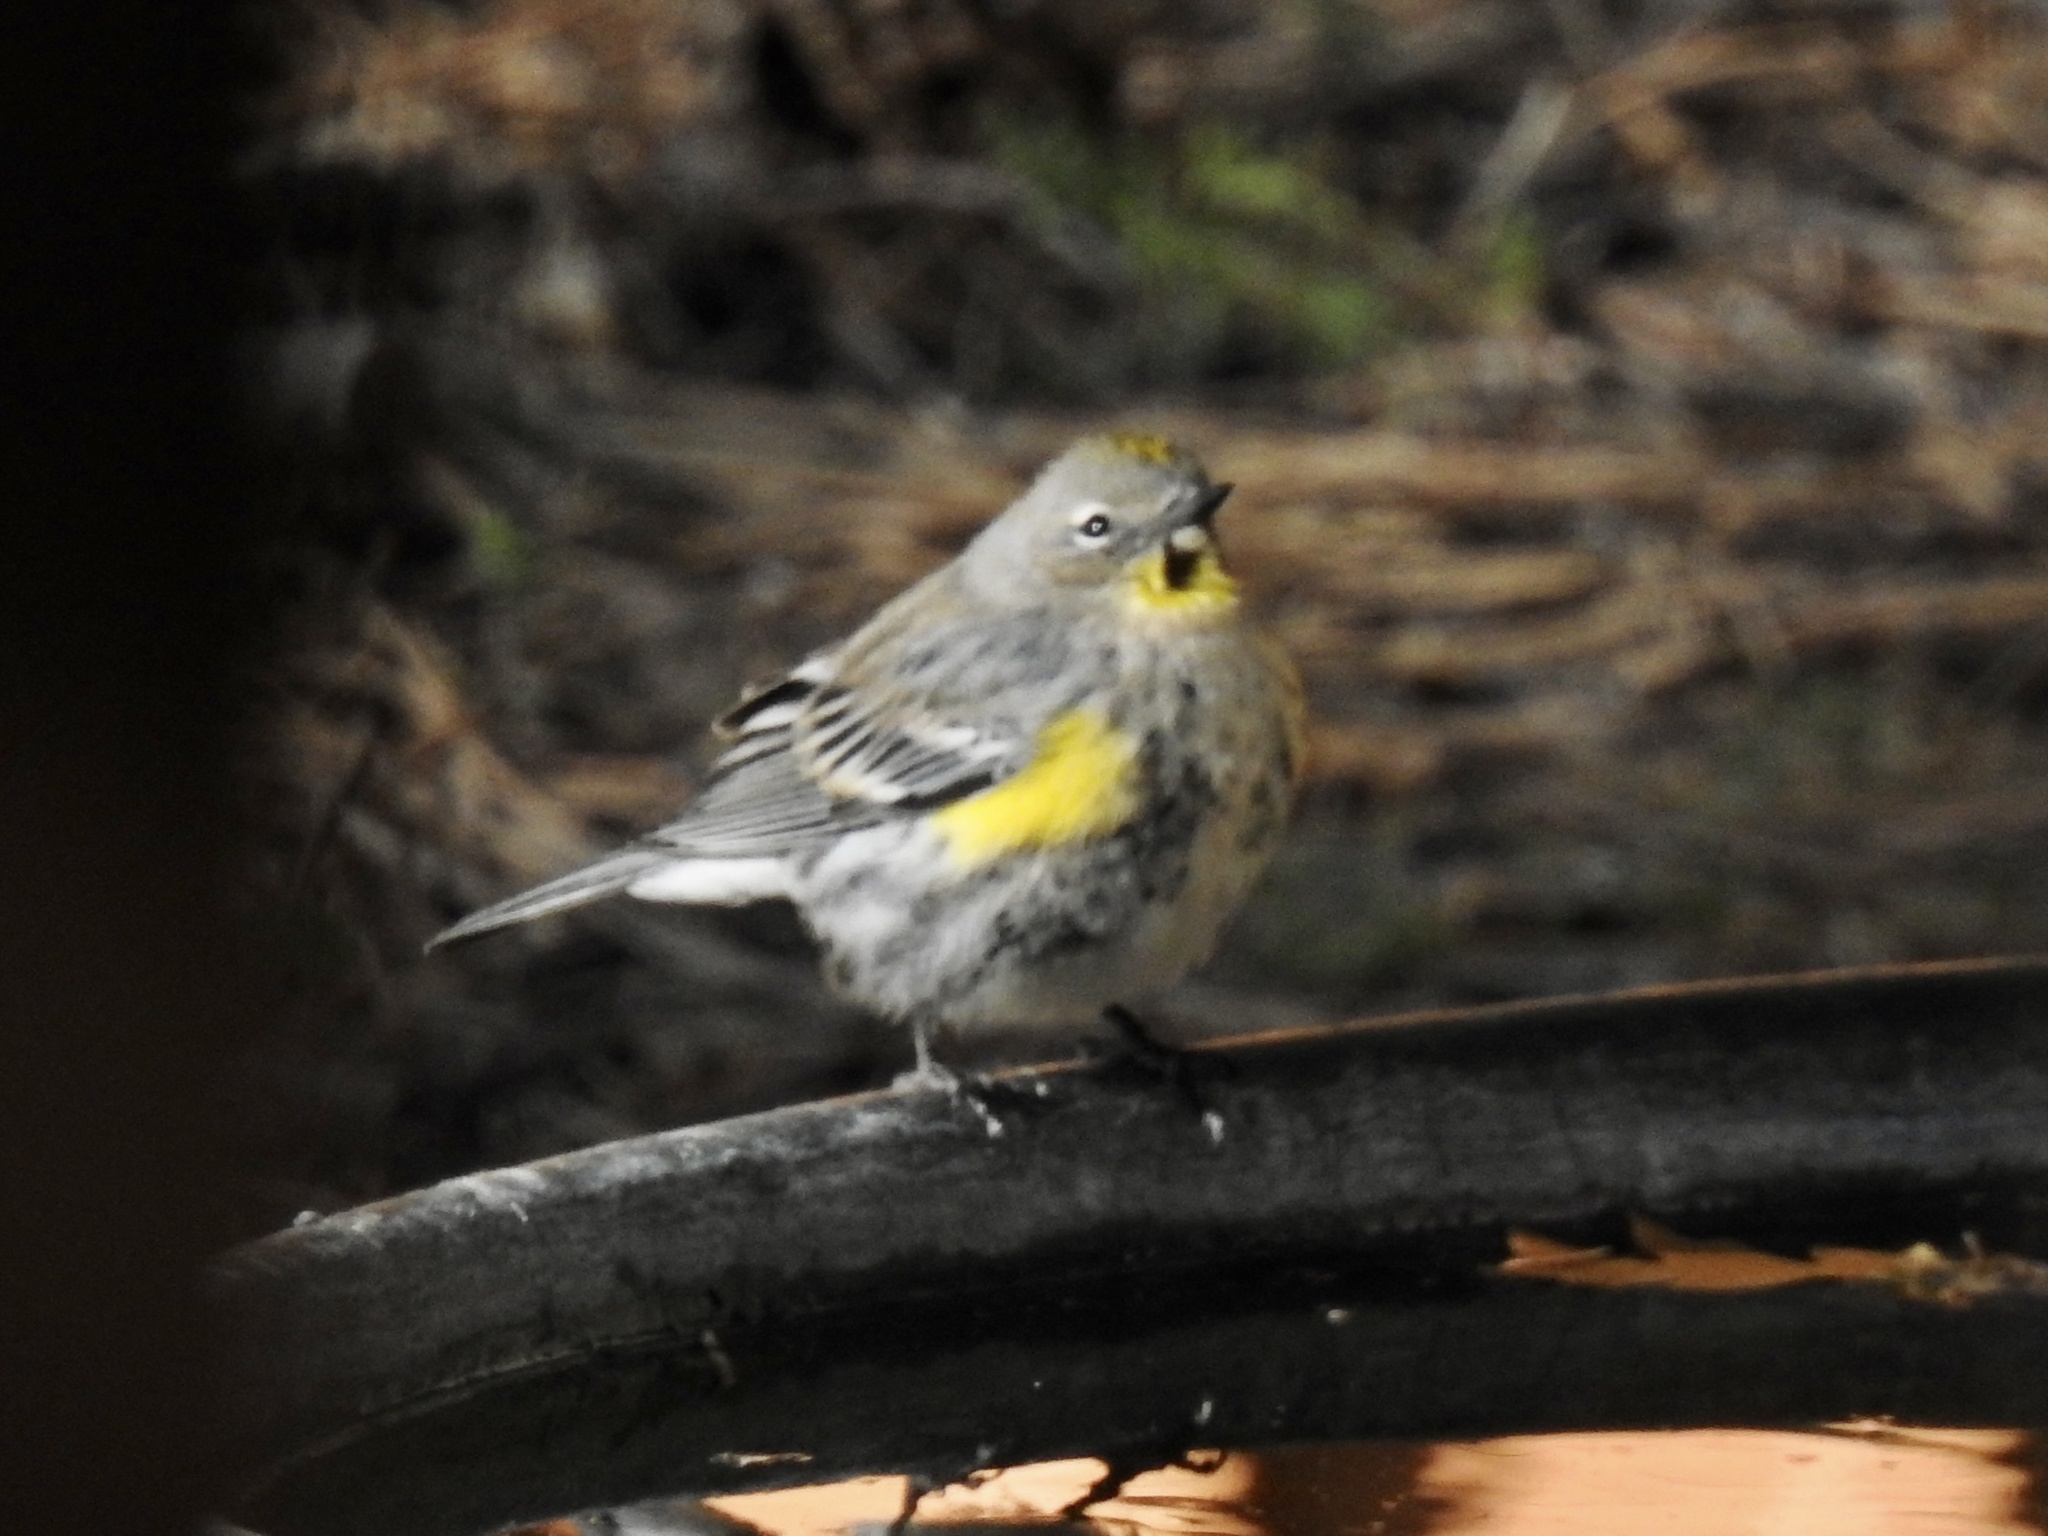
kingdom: Animalia
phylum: Chordata
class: Aves
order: Passeriformes
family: Parulidae
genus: Setophaga
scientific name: Setophaga coronata
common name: Myrtle warbler
